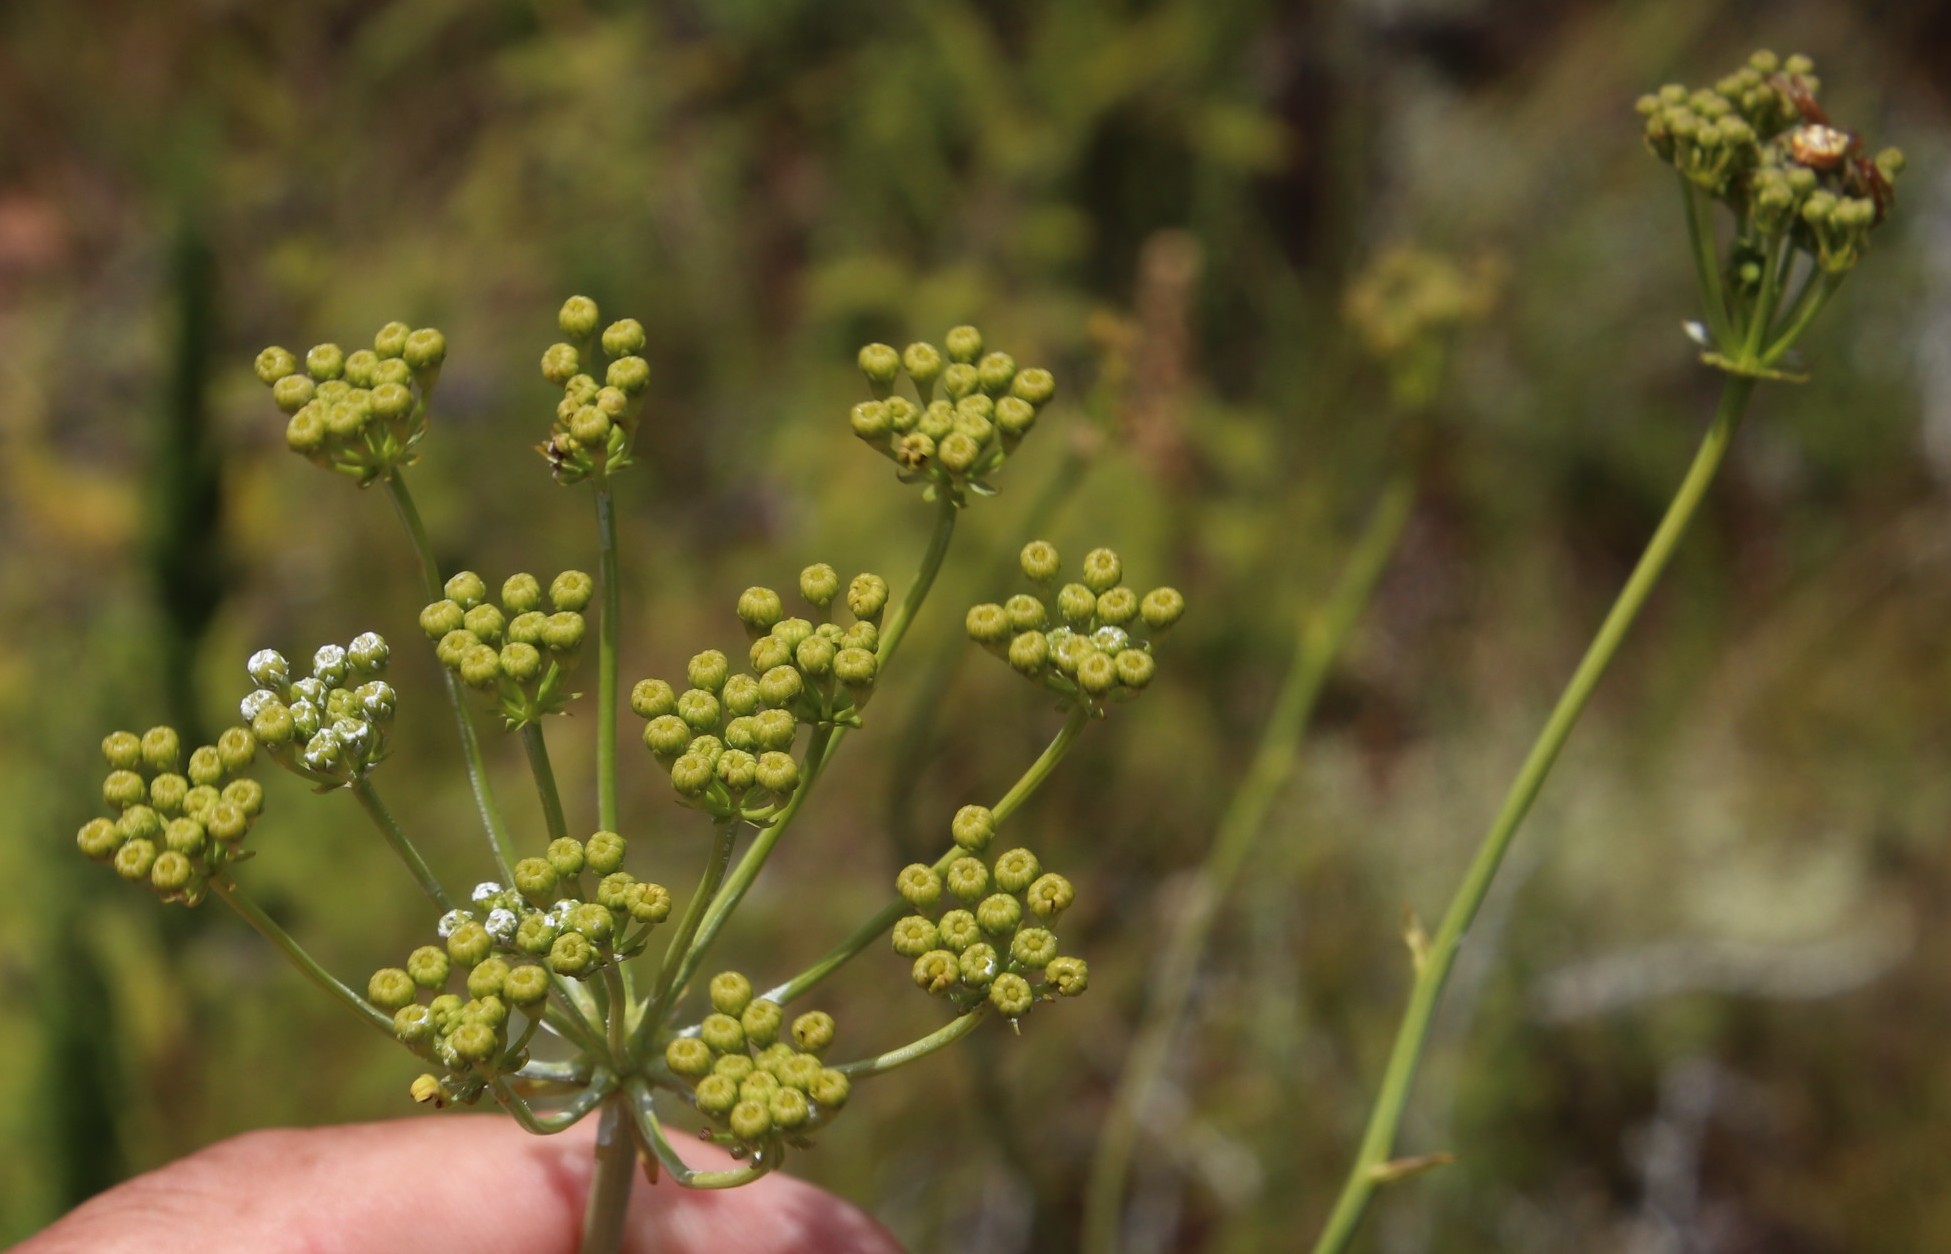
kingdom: Plantae
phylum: Tracheophyta
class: Magnoliopsida
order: Apiales
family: Apiaceae
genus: Lichtensteinia
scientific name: Lichtensteinia trifida
